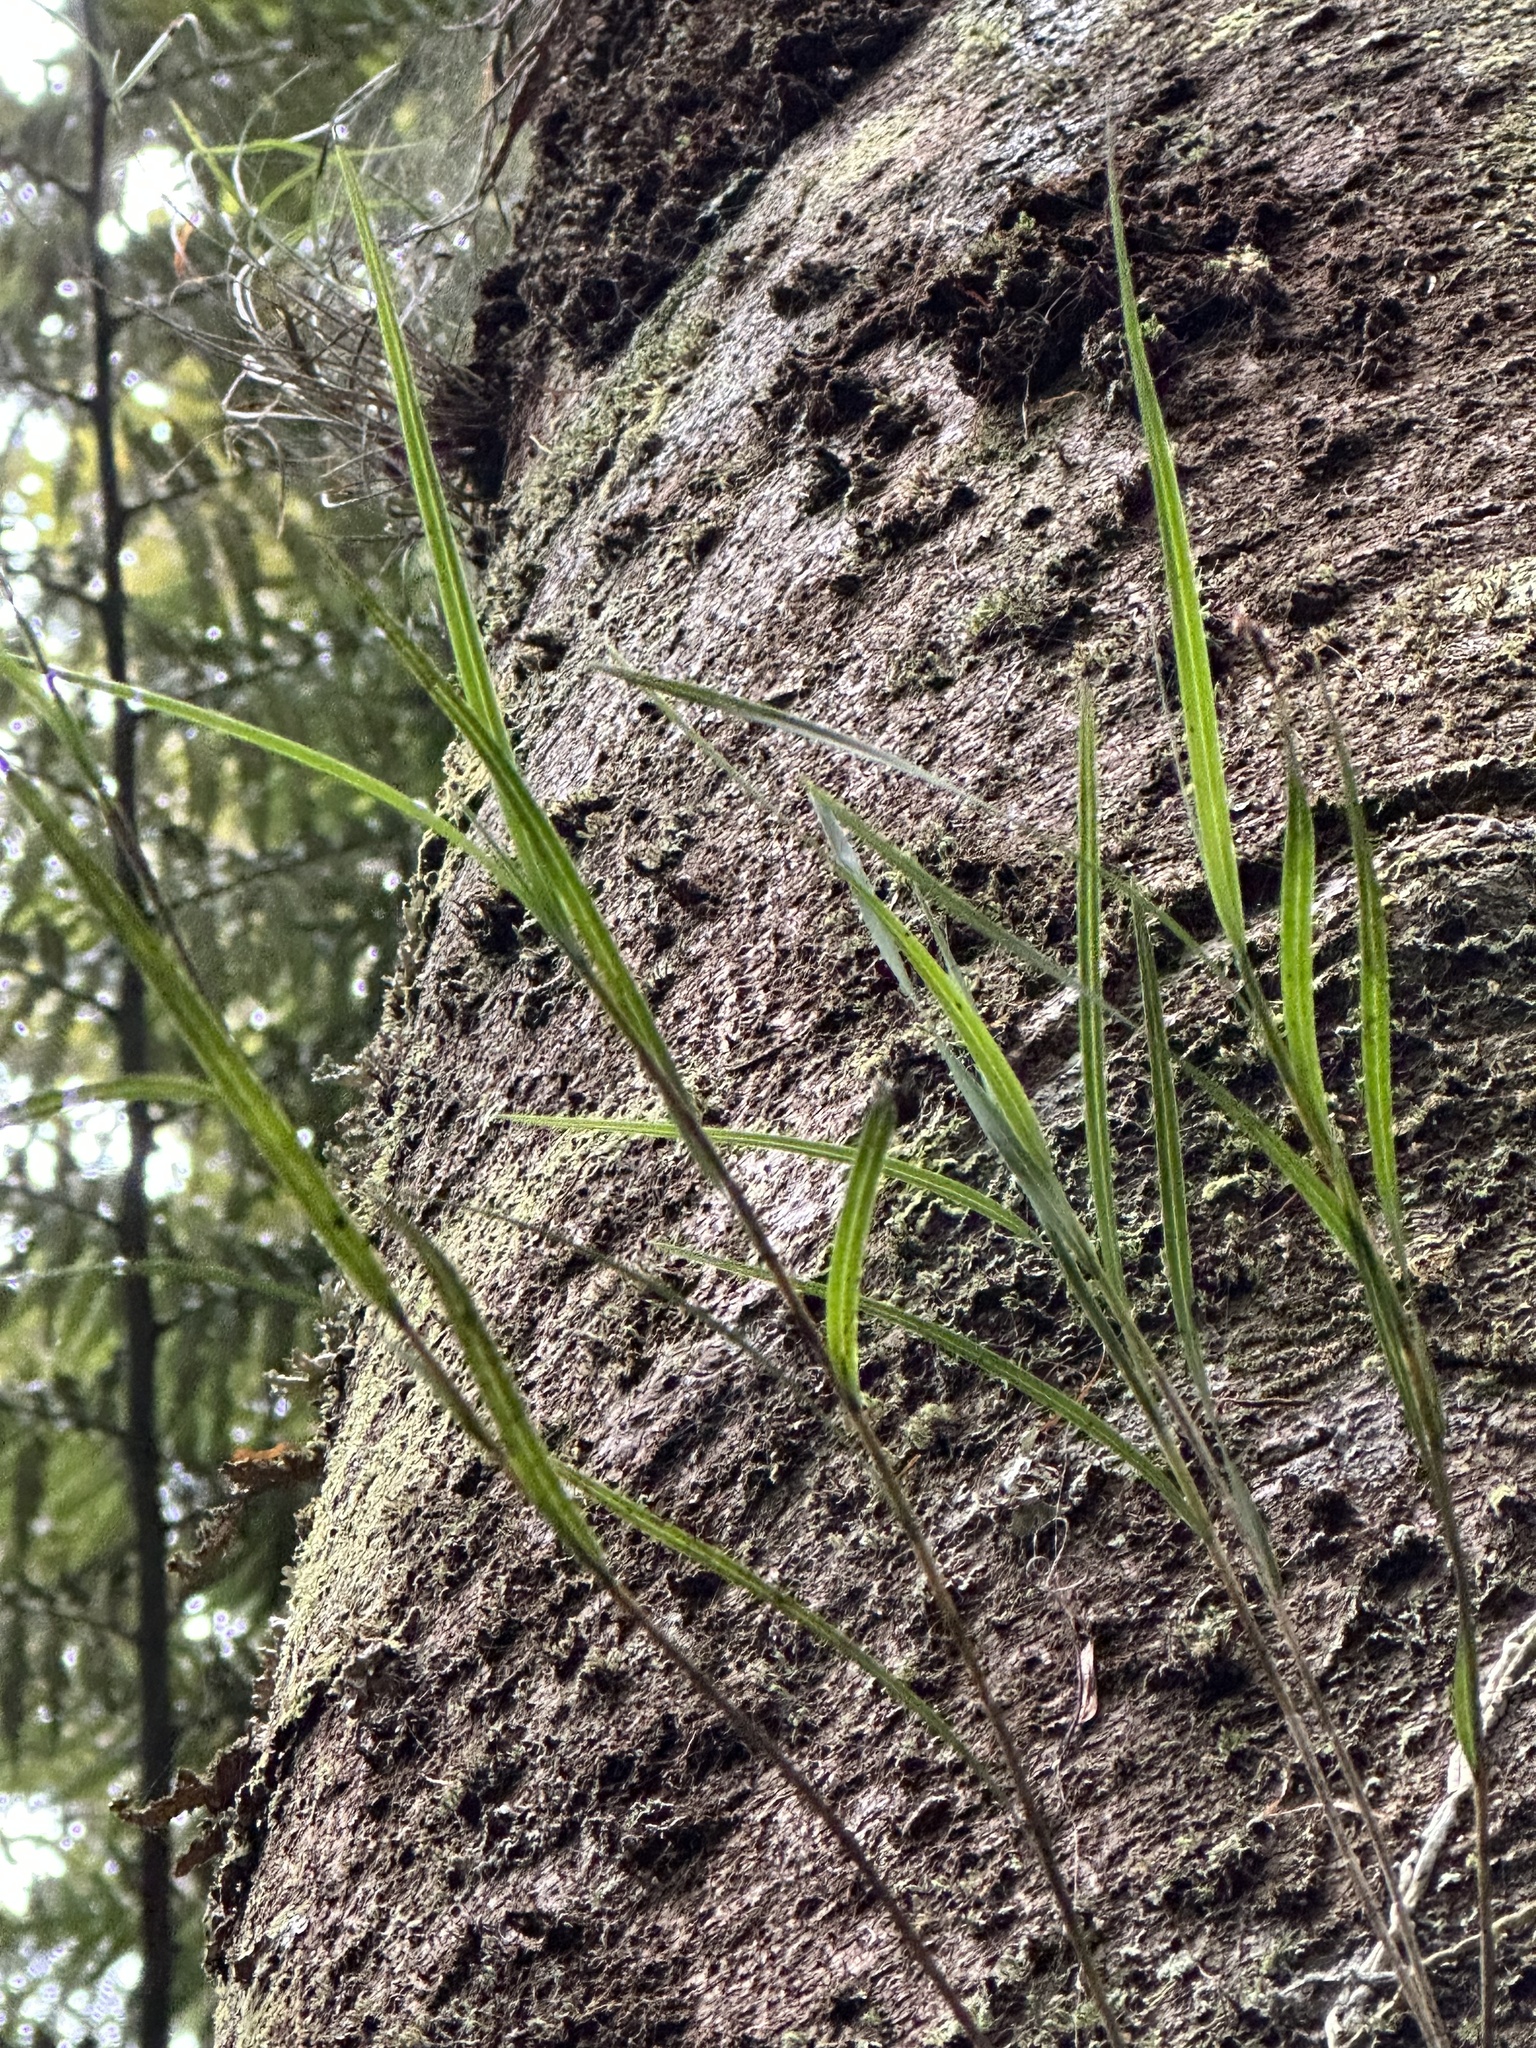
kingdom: Plantae
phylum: Tracheophyta
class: Liliopsida
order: Asparagales
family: Orchidaceae
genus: Earina
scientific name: Earina mucronata
